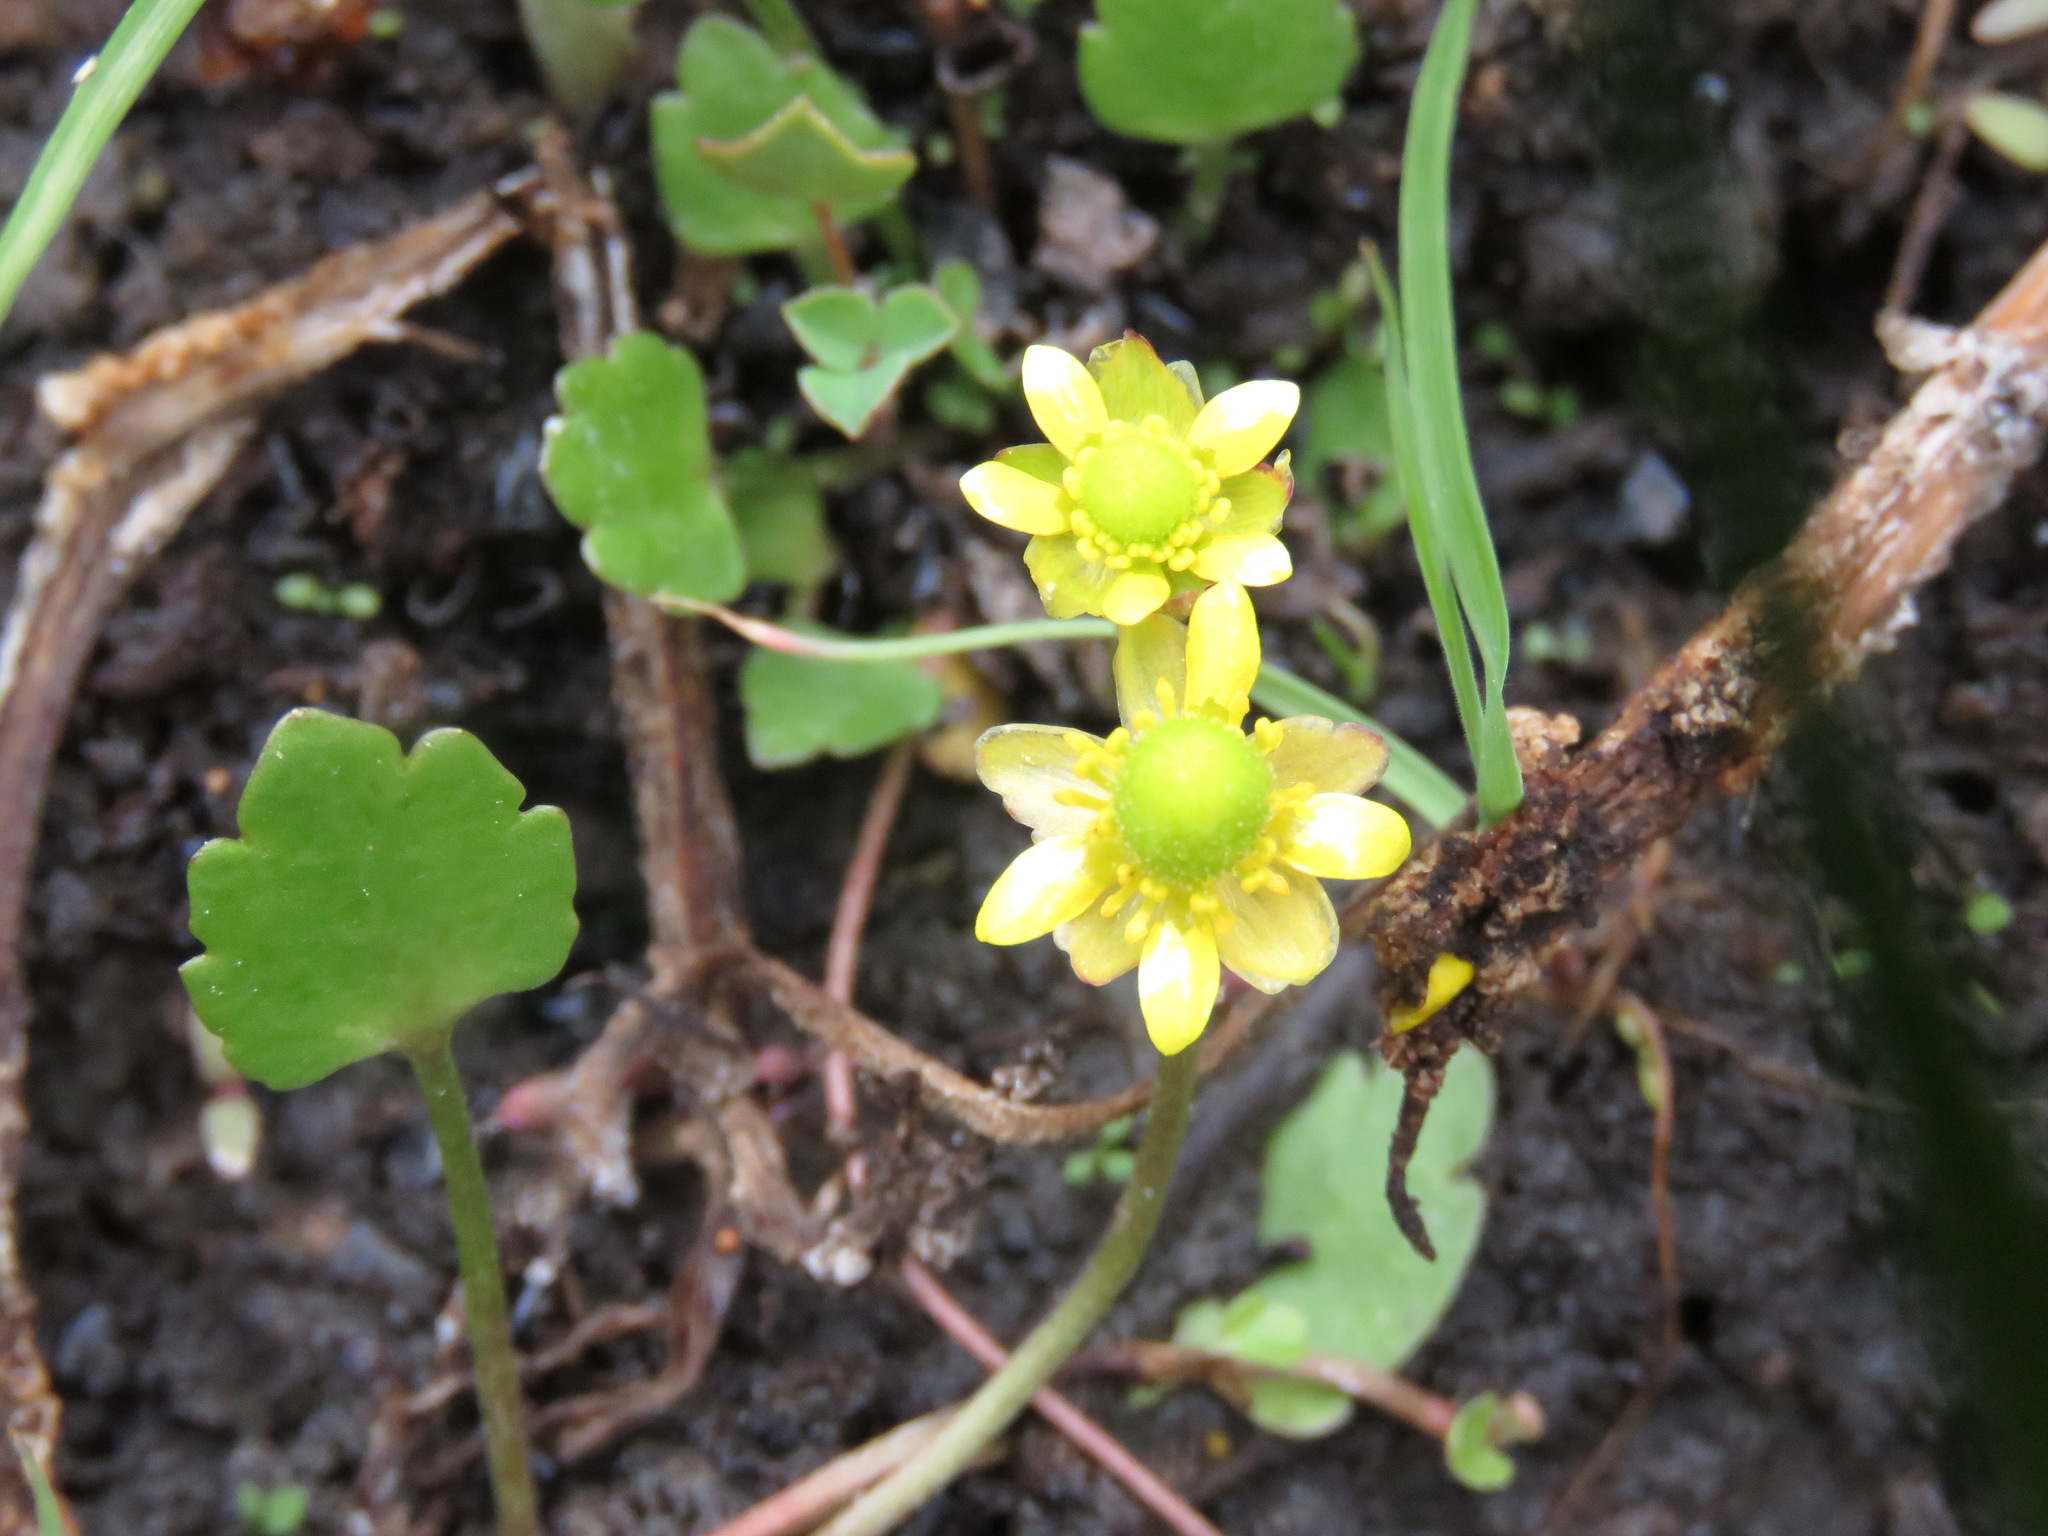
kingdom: Plantae
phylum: Tracheophyta
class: Magnoliopsida
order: Ranunculales
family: Ranunculaceae
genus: Halerpestes
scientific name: Halerpestes cymbalaria
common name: Seaside crowfoot
